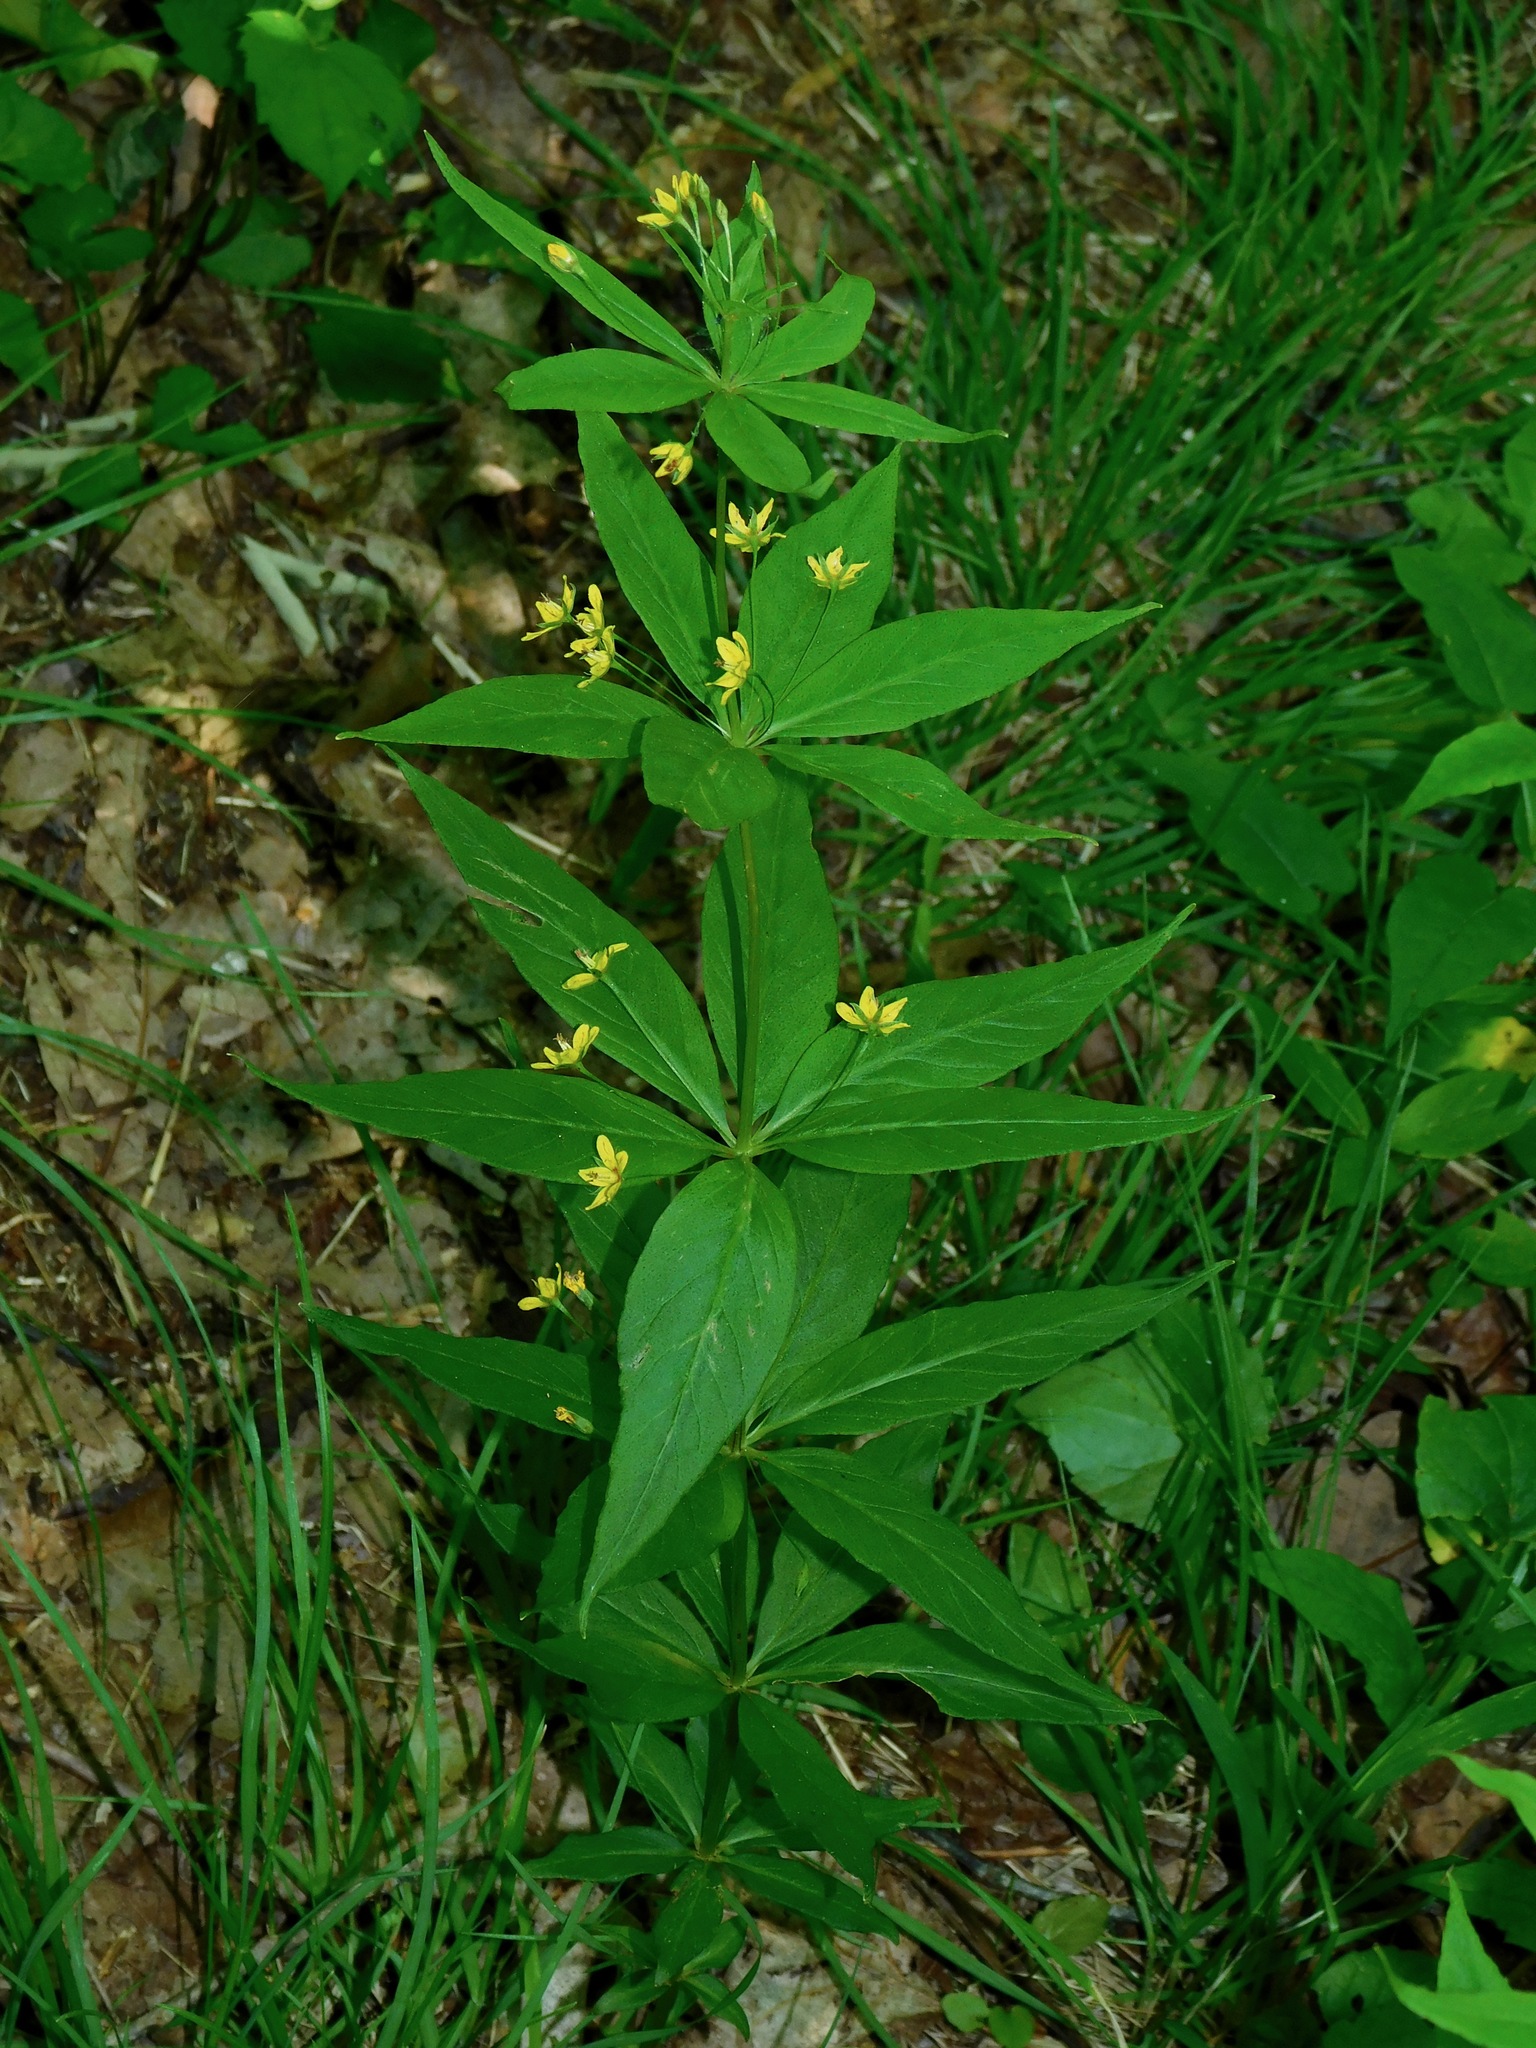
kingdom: Plantae
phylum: Tracheophyta
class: Magnoliopsida
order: Ericales
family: Primulaceae
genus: Lysimachia
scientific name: Lysimachia quadrifolia
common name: Whorled loosestrife
